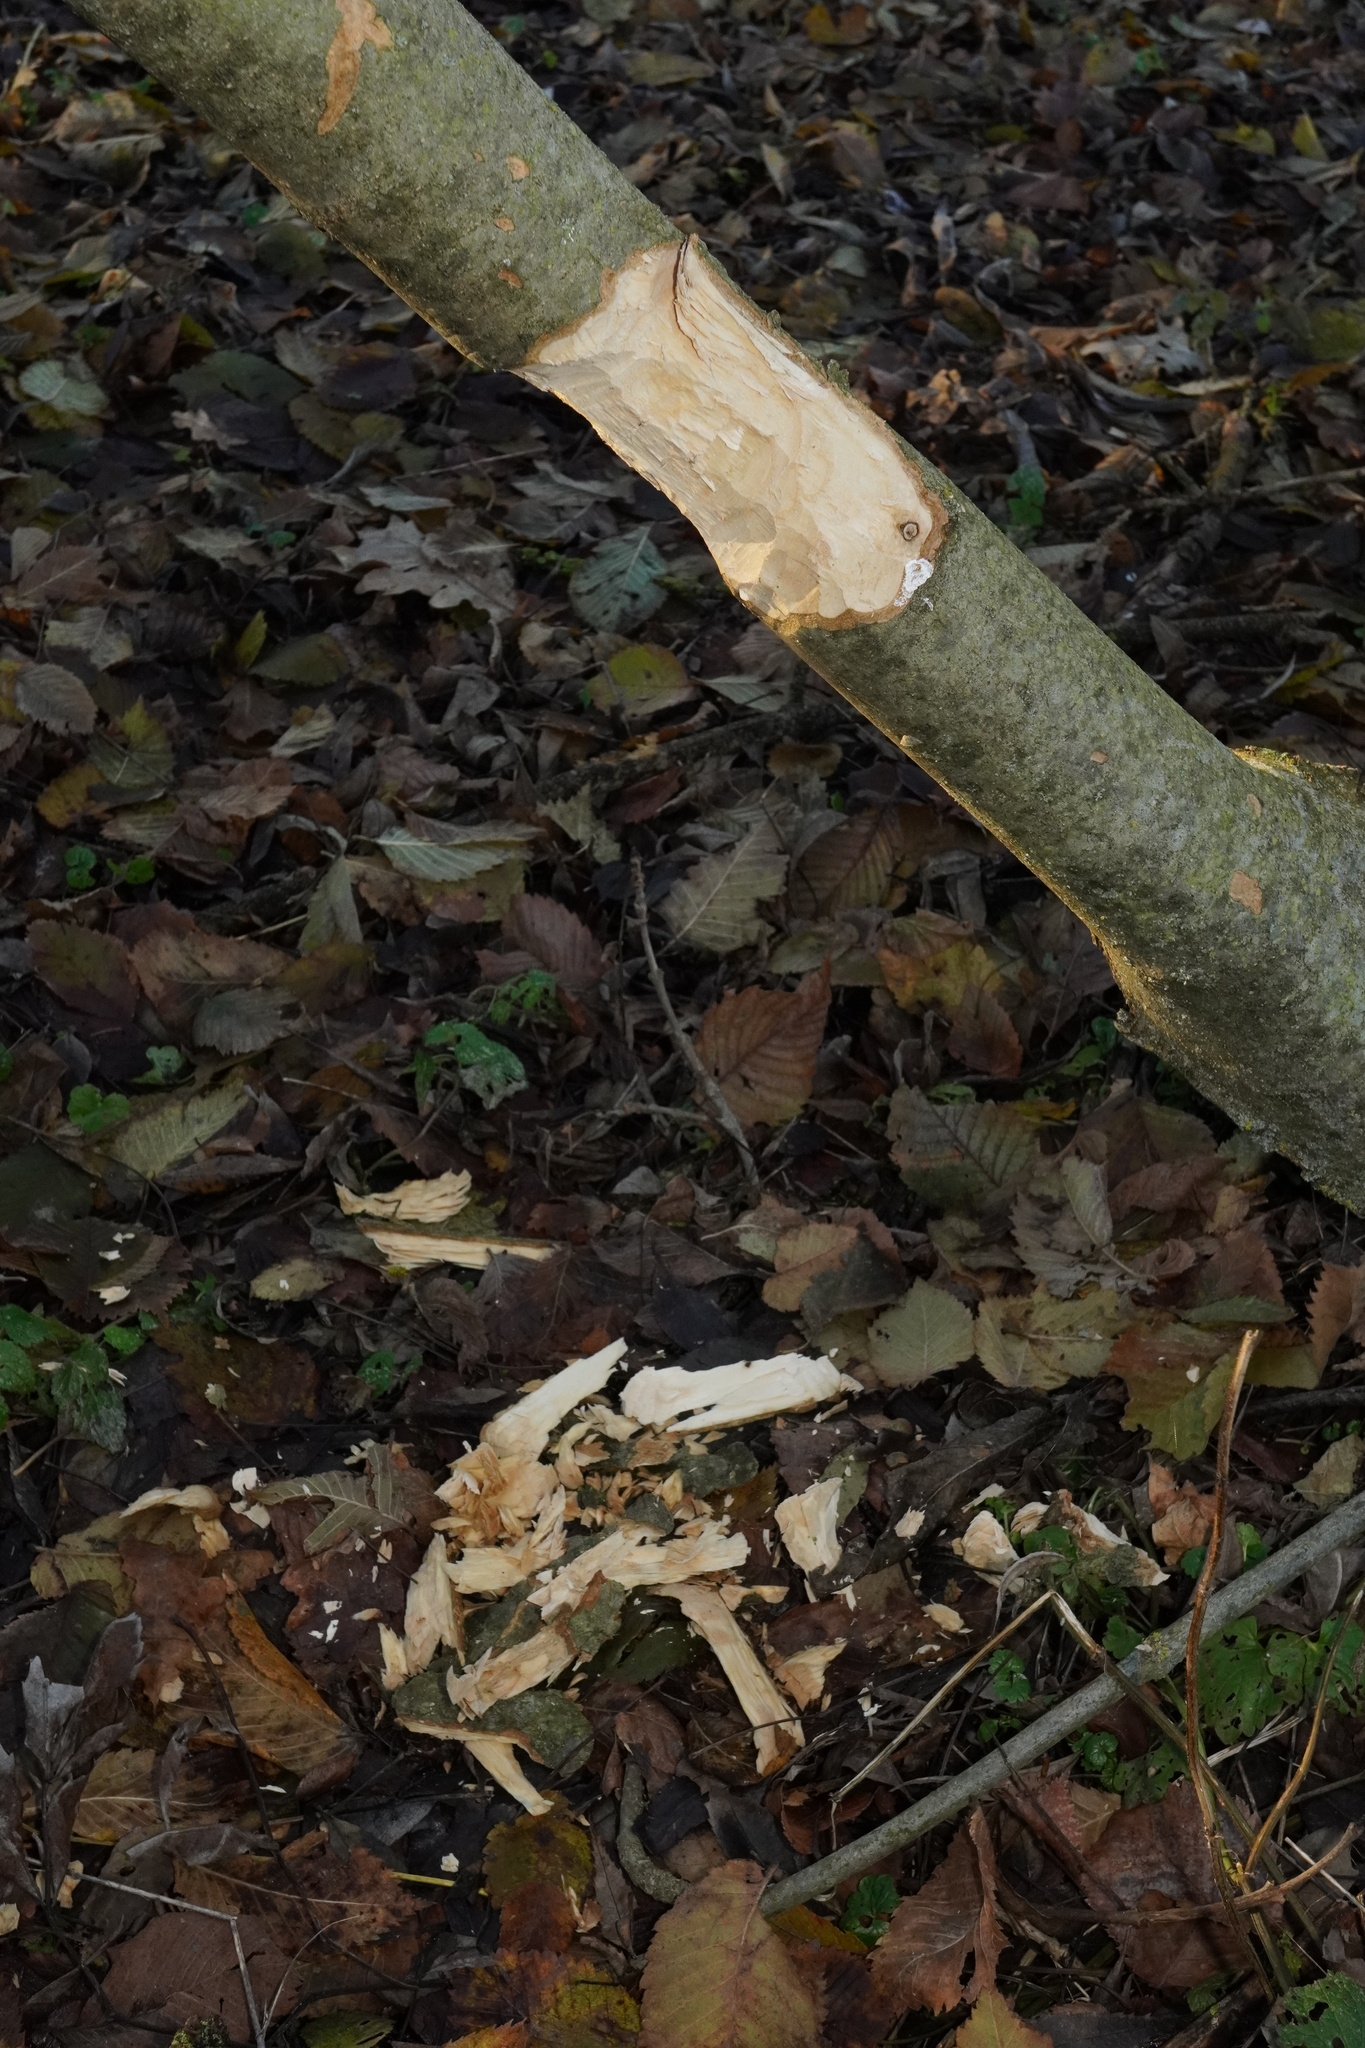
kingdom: Animalia
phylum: Chordata
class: Mammalia
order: Rodentia
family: Castoridae
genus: Castor
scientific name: Castor fiber
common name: Eurasian beaver
